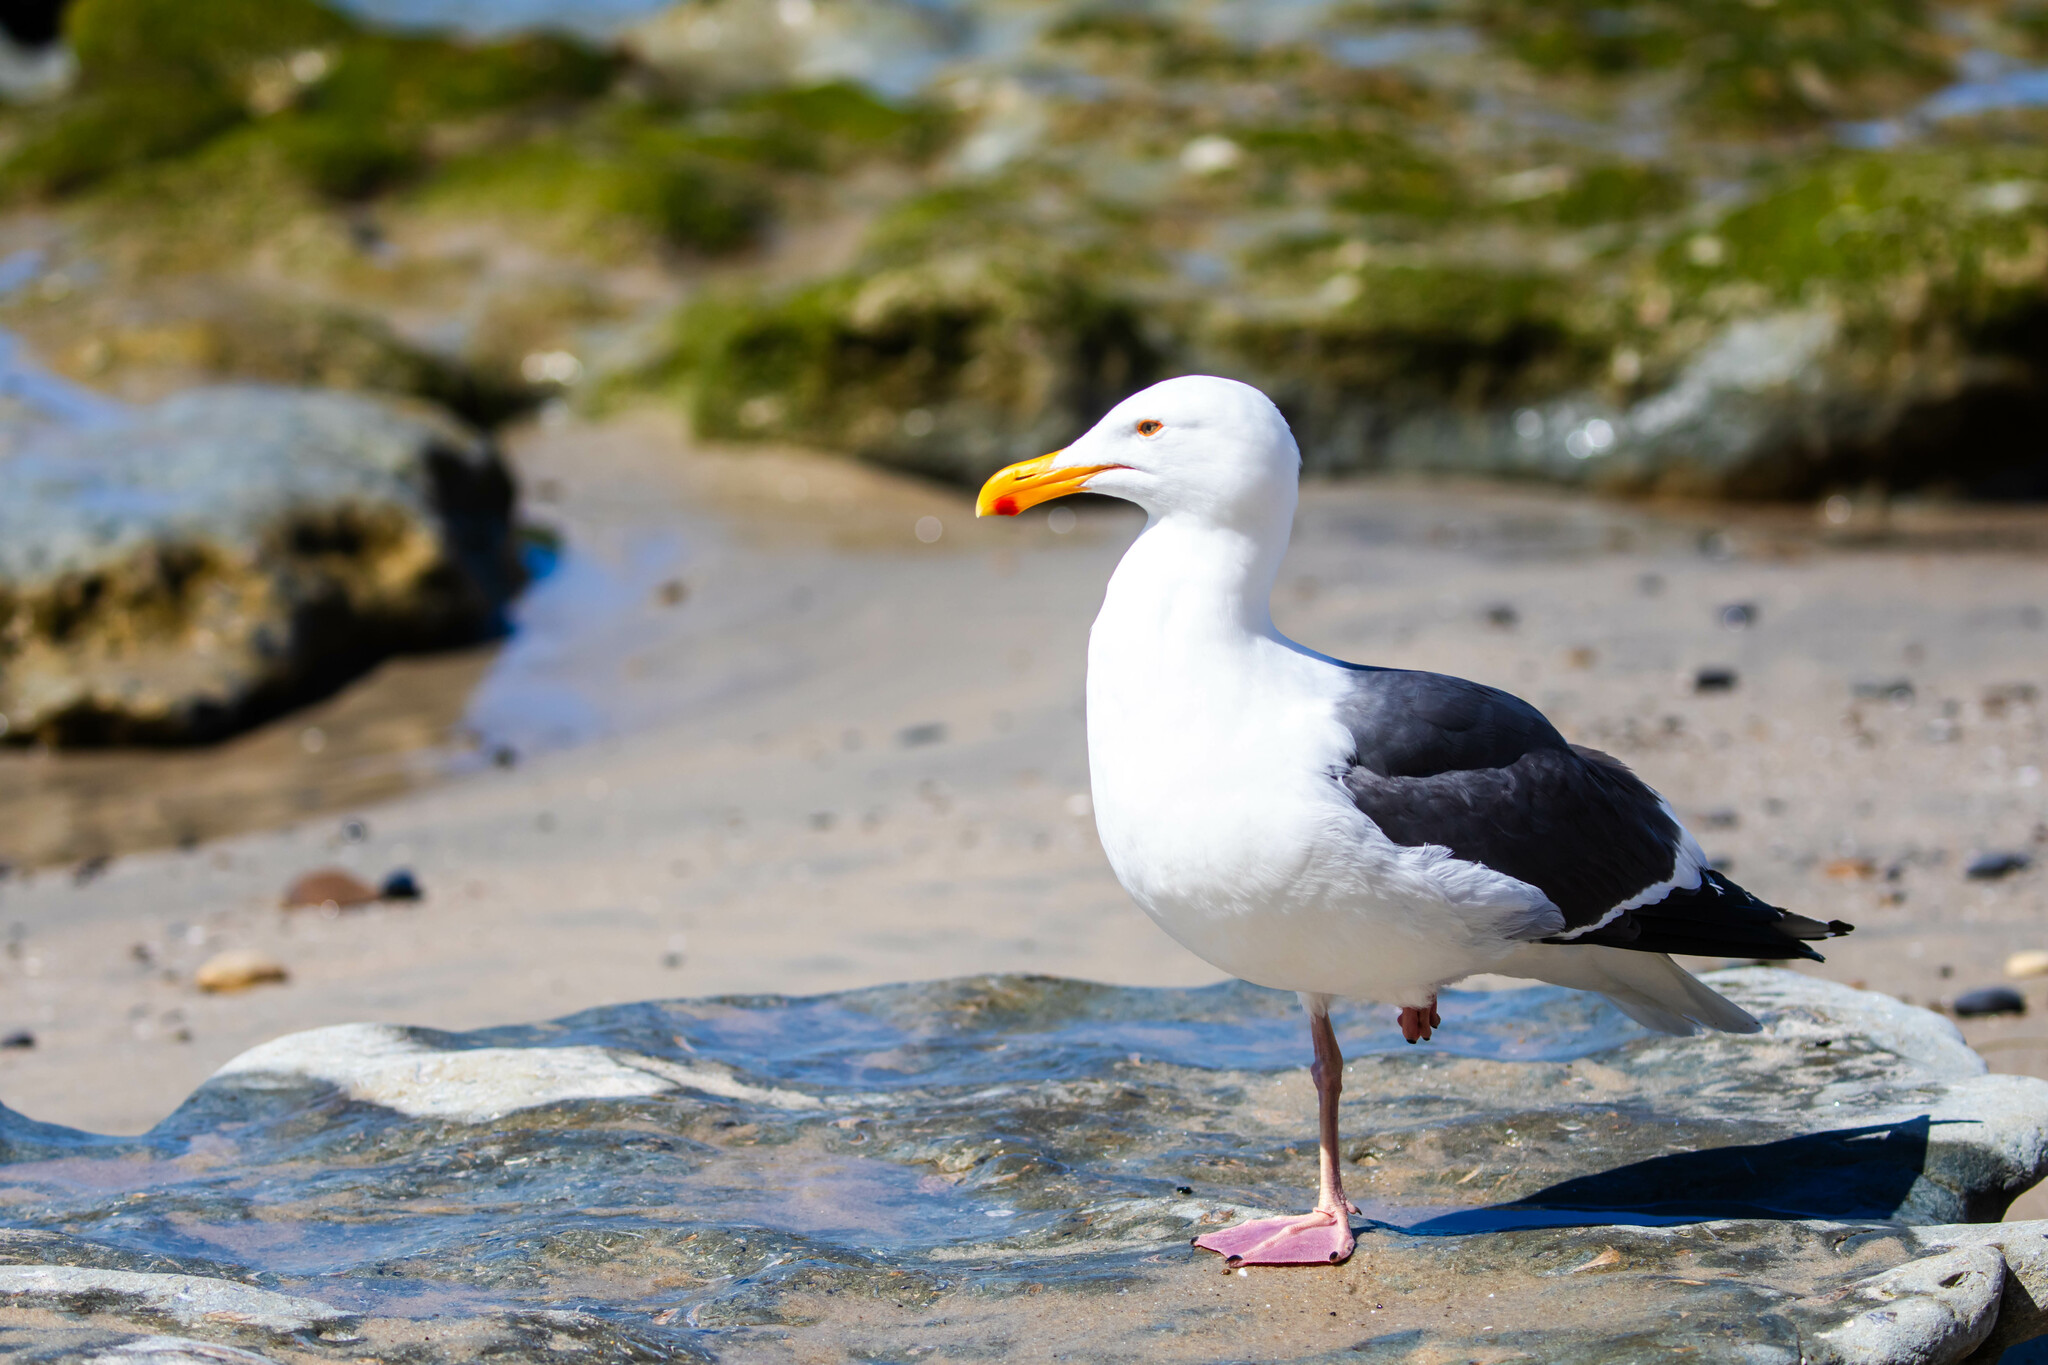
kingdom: Animalia
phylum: Chordata
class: Aves
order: Charadriiformes
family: Laridae
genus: Larus
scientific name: Larus occidentalis
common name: Western gull
